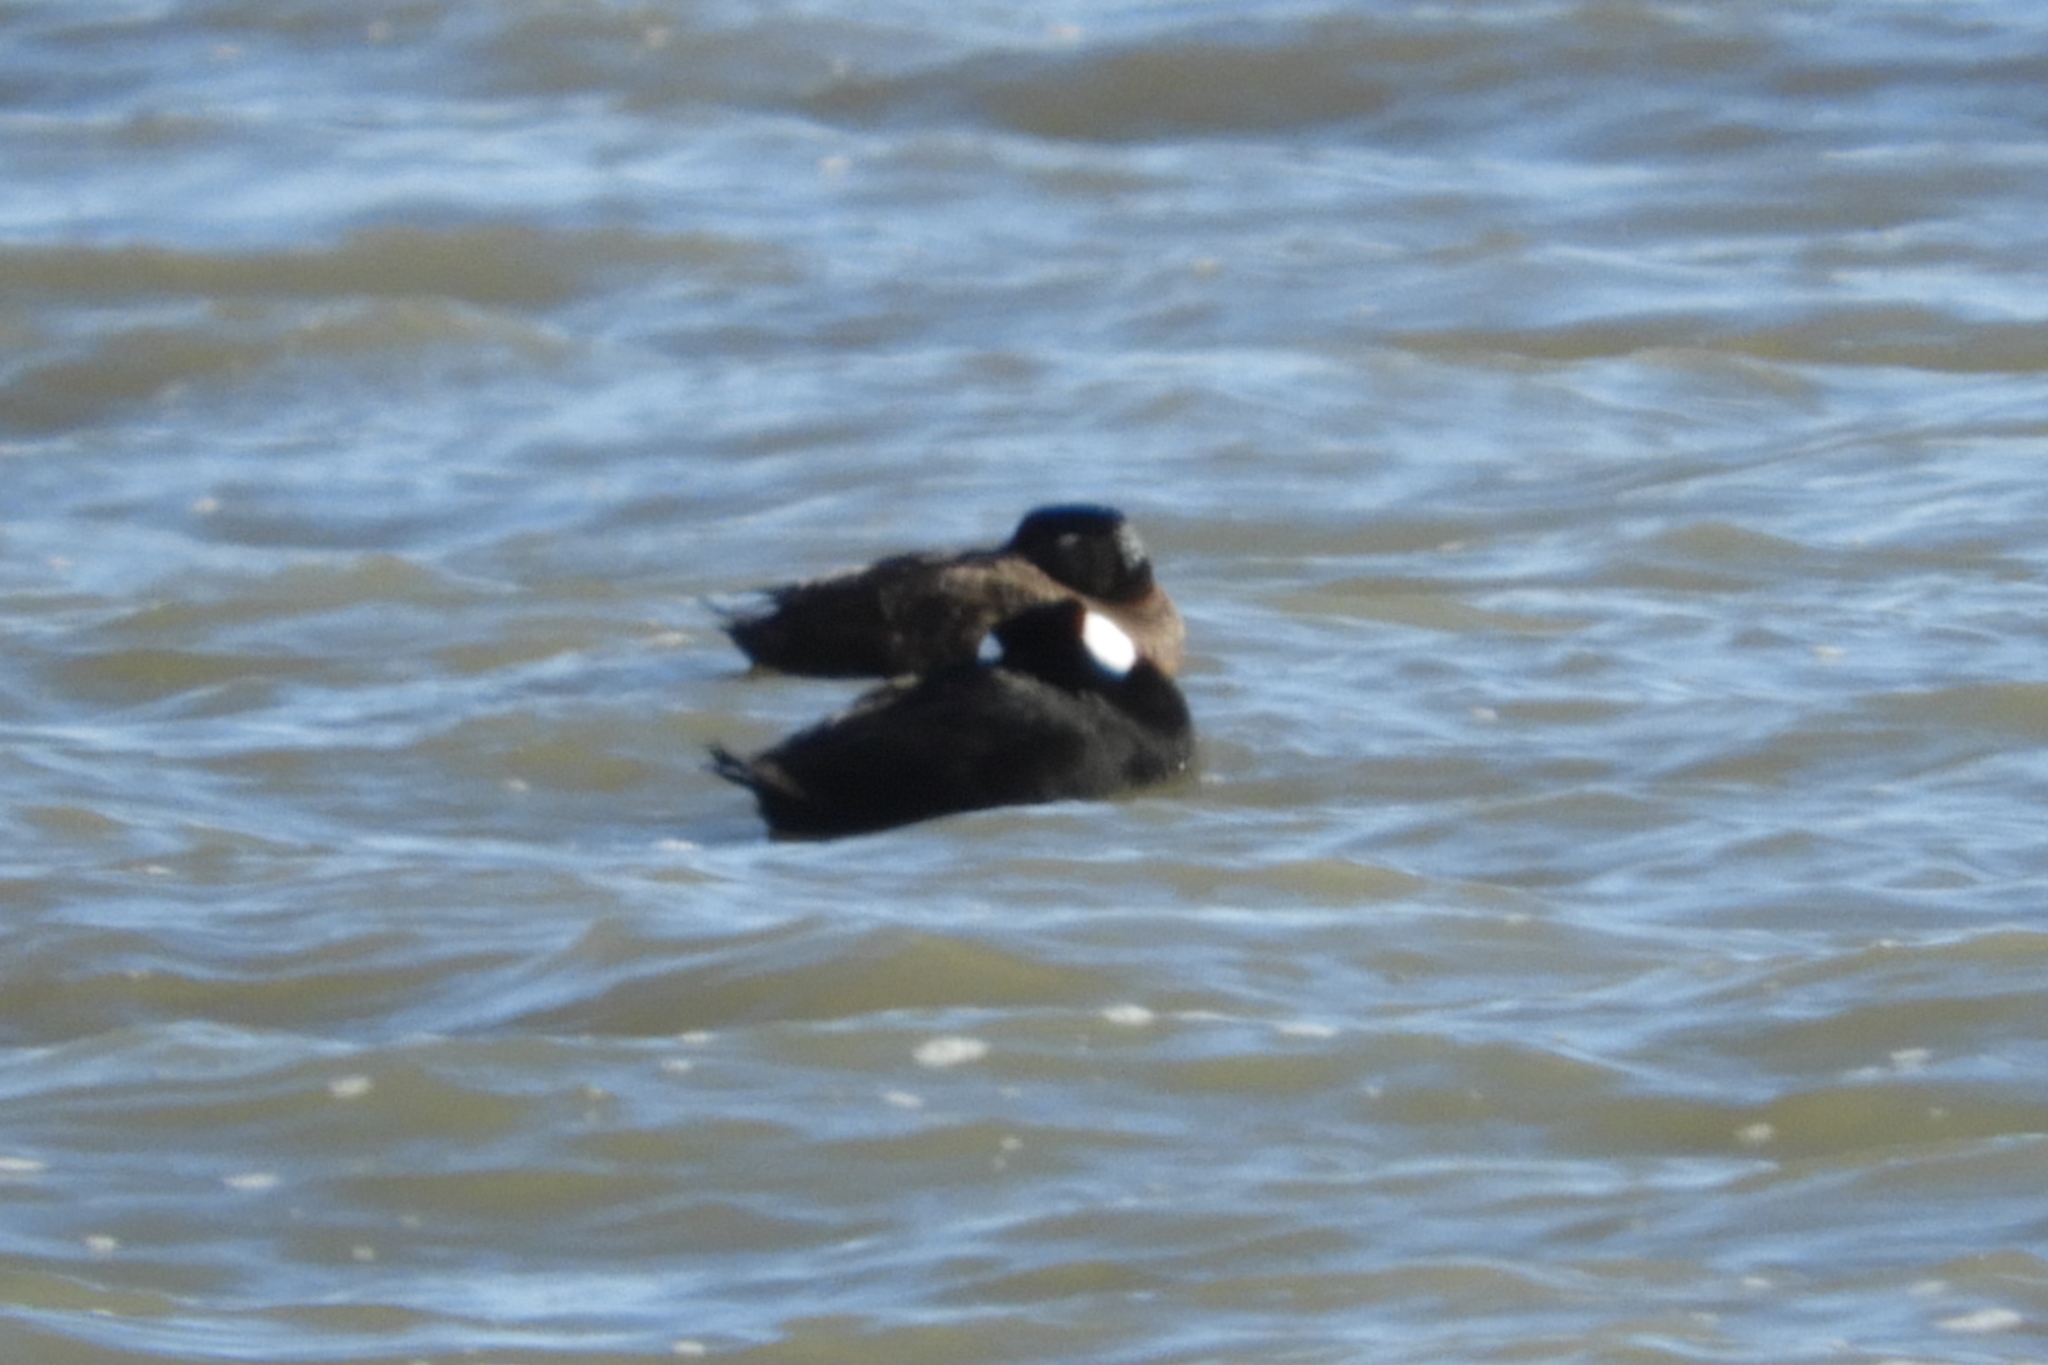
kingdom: Animalia
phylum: Chordata
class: Aves
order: Anseriformes
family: Anatidae
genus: Melanitta
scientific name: Melanitta perspicillata
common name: Surf scoter
